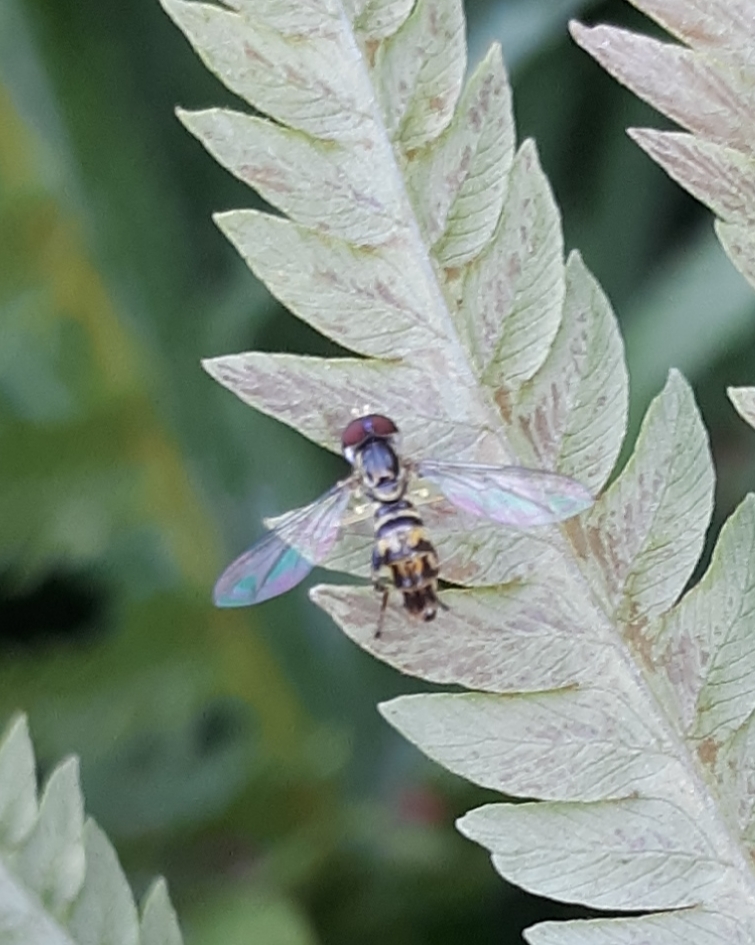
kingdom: Animalia
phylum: Arthropoda
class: Insecta
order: Diptera
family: Syrphidae
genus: Toxomerus
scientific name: Toxomerus geminatus
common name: Eastern calligrapher
